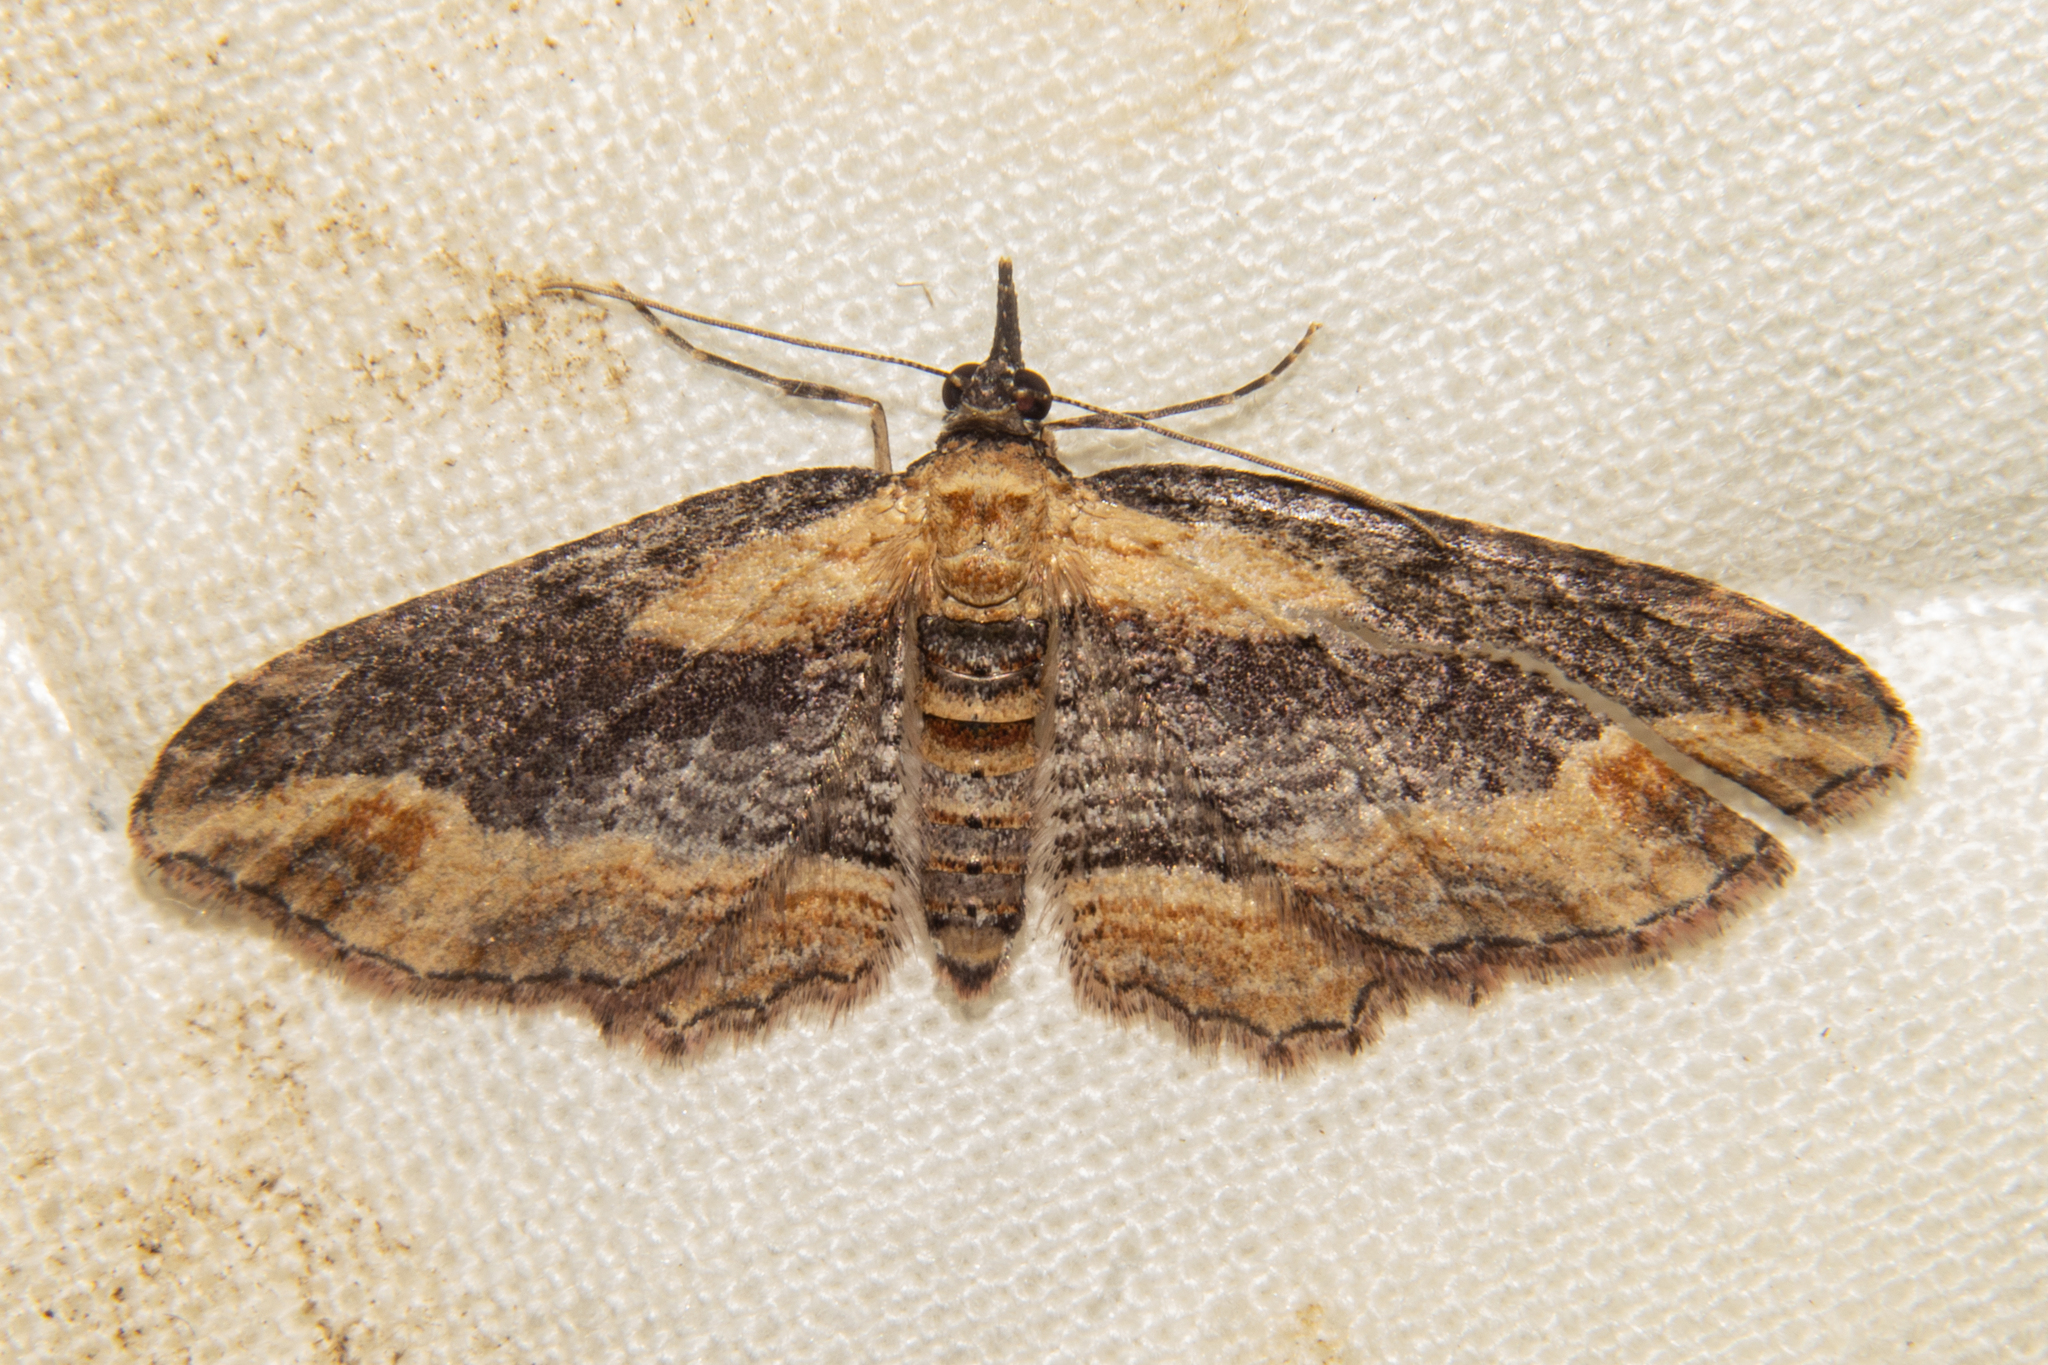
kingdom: Animalia
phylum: Arthropoda
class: Insecta
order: Lepidoptera
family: Geometridae
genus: Chloroclystis
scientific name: Chloroclystis filata
